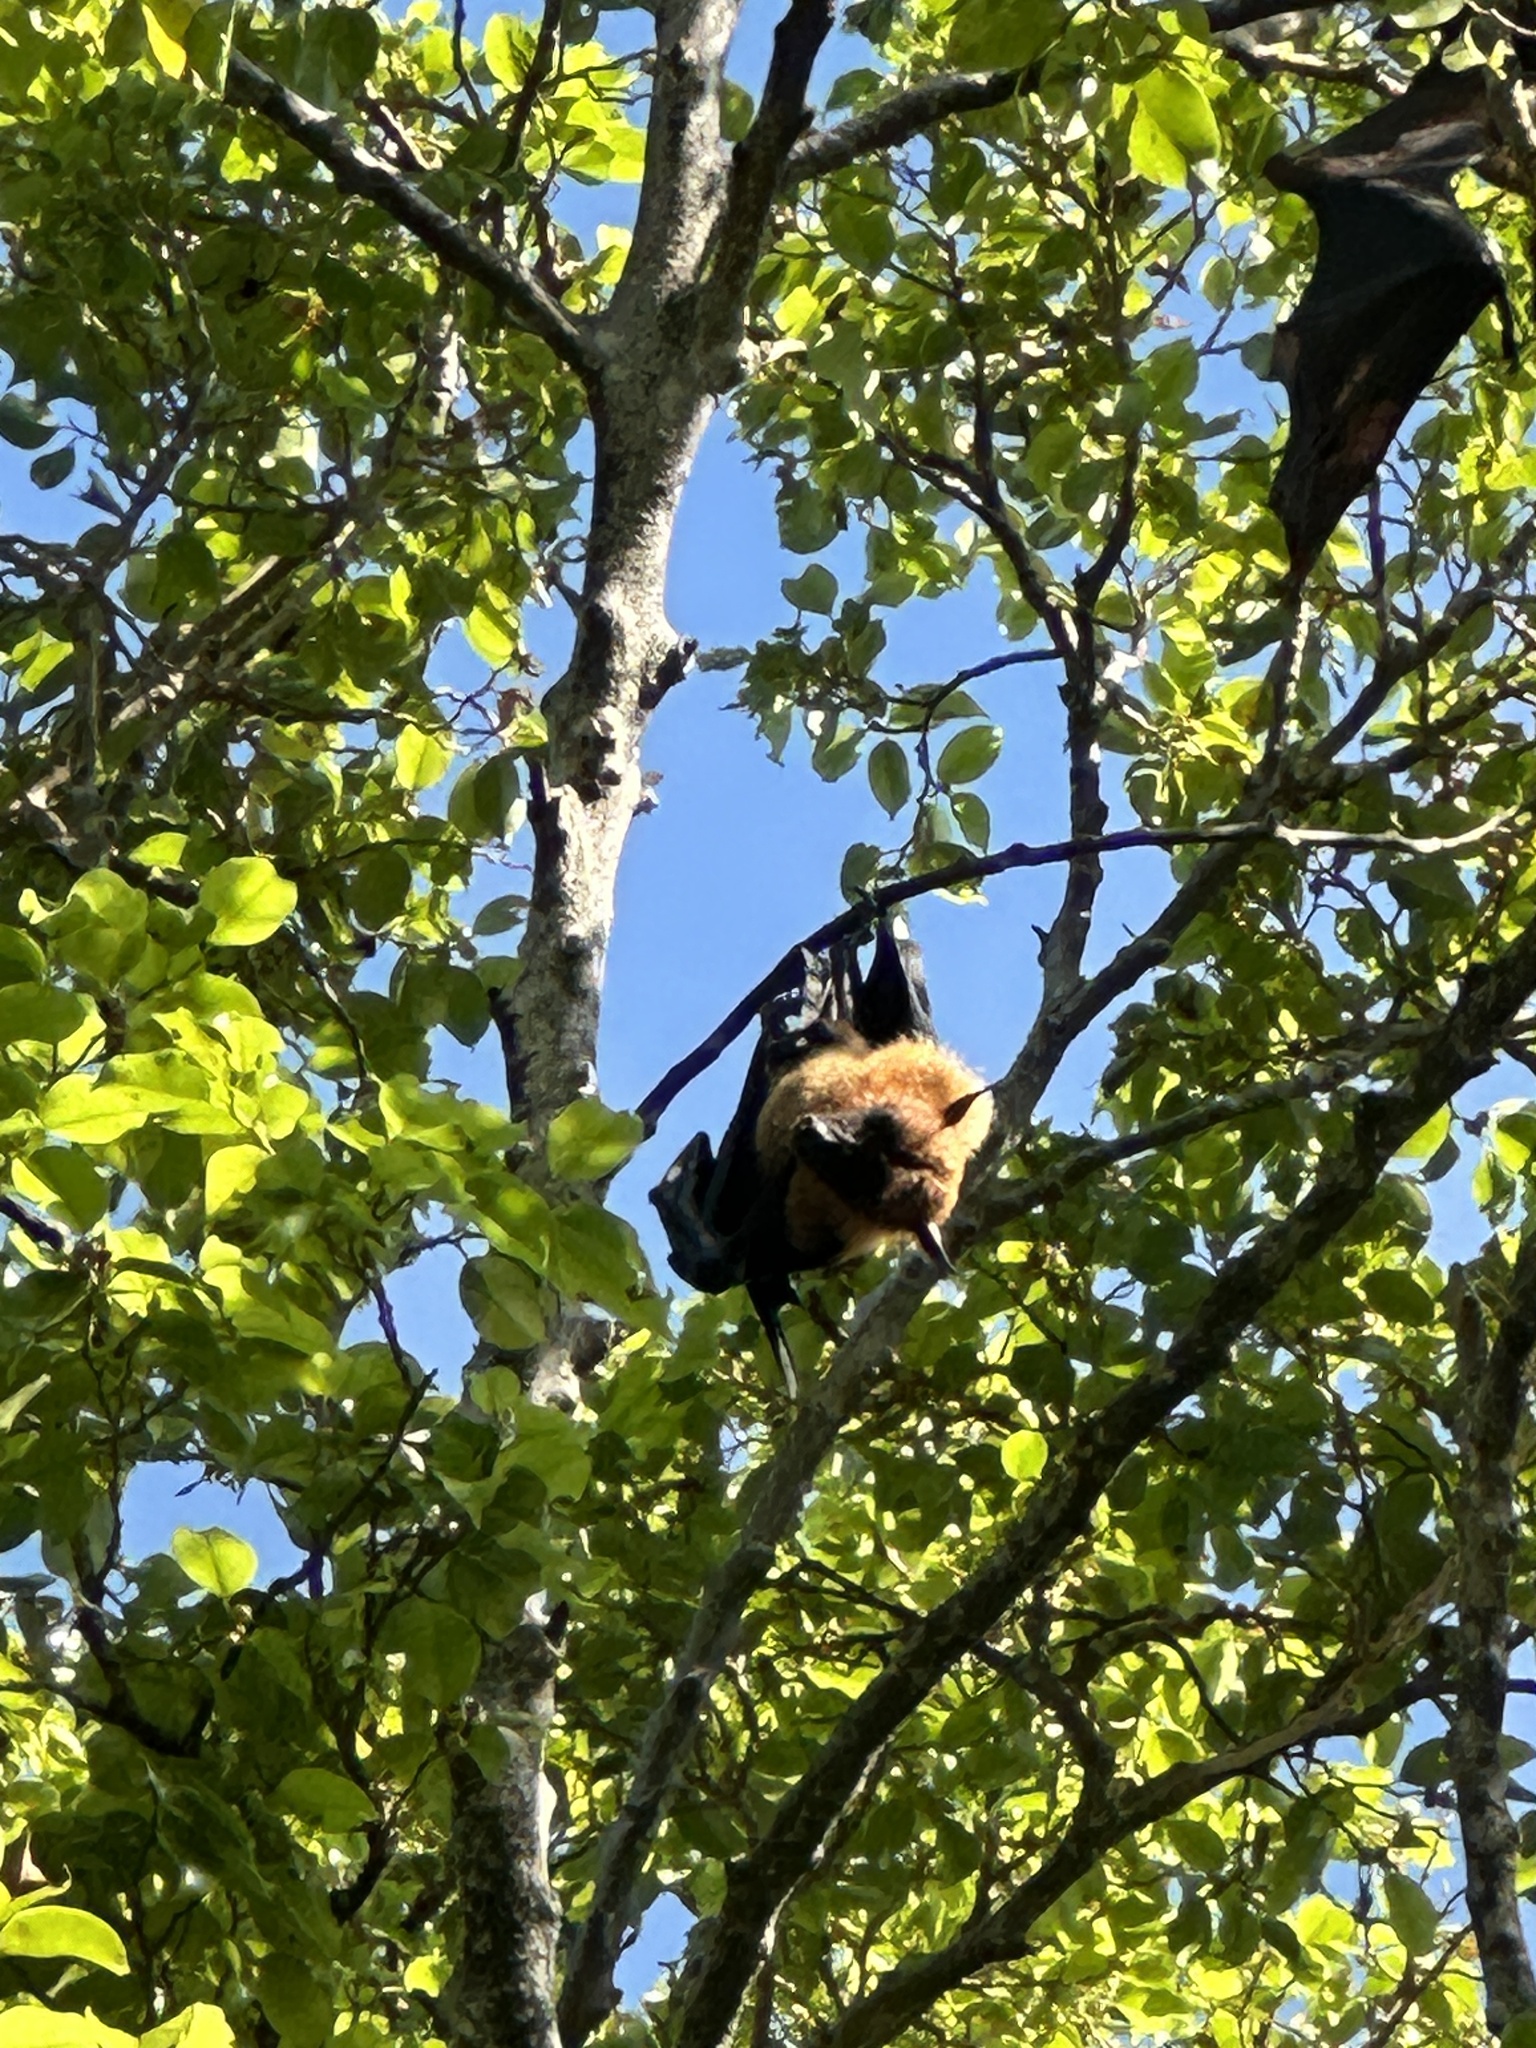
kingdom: Animalia
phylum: Chordata
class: Mammalia
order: Chiroptera
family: Pteropodidae
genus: Pteropus
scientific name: Pteropus vampyrus
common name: Large flying fox
